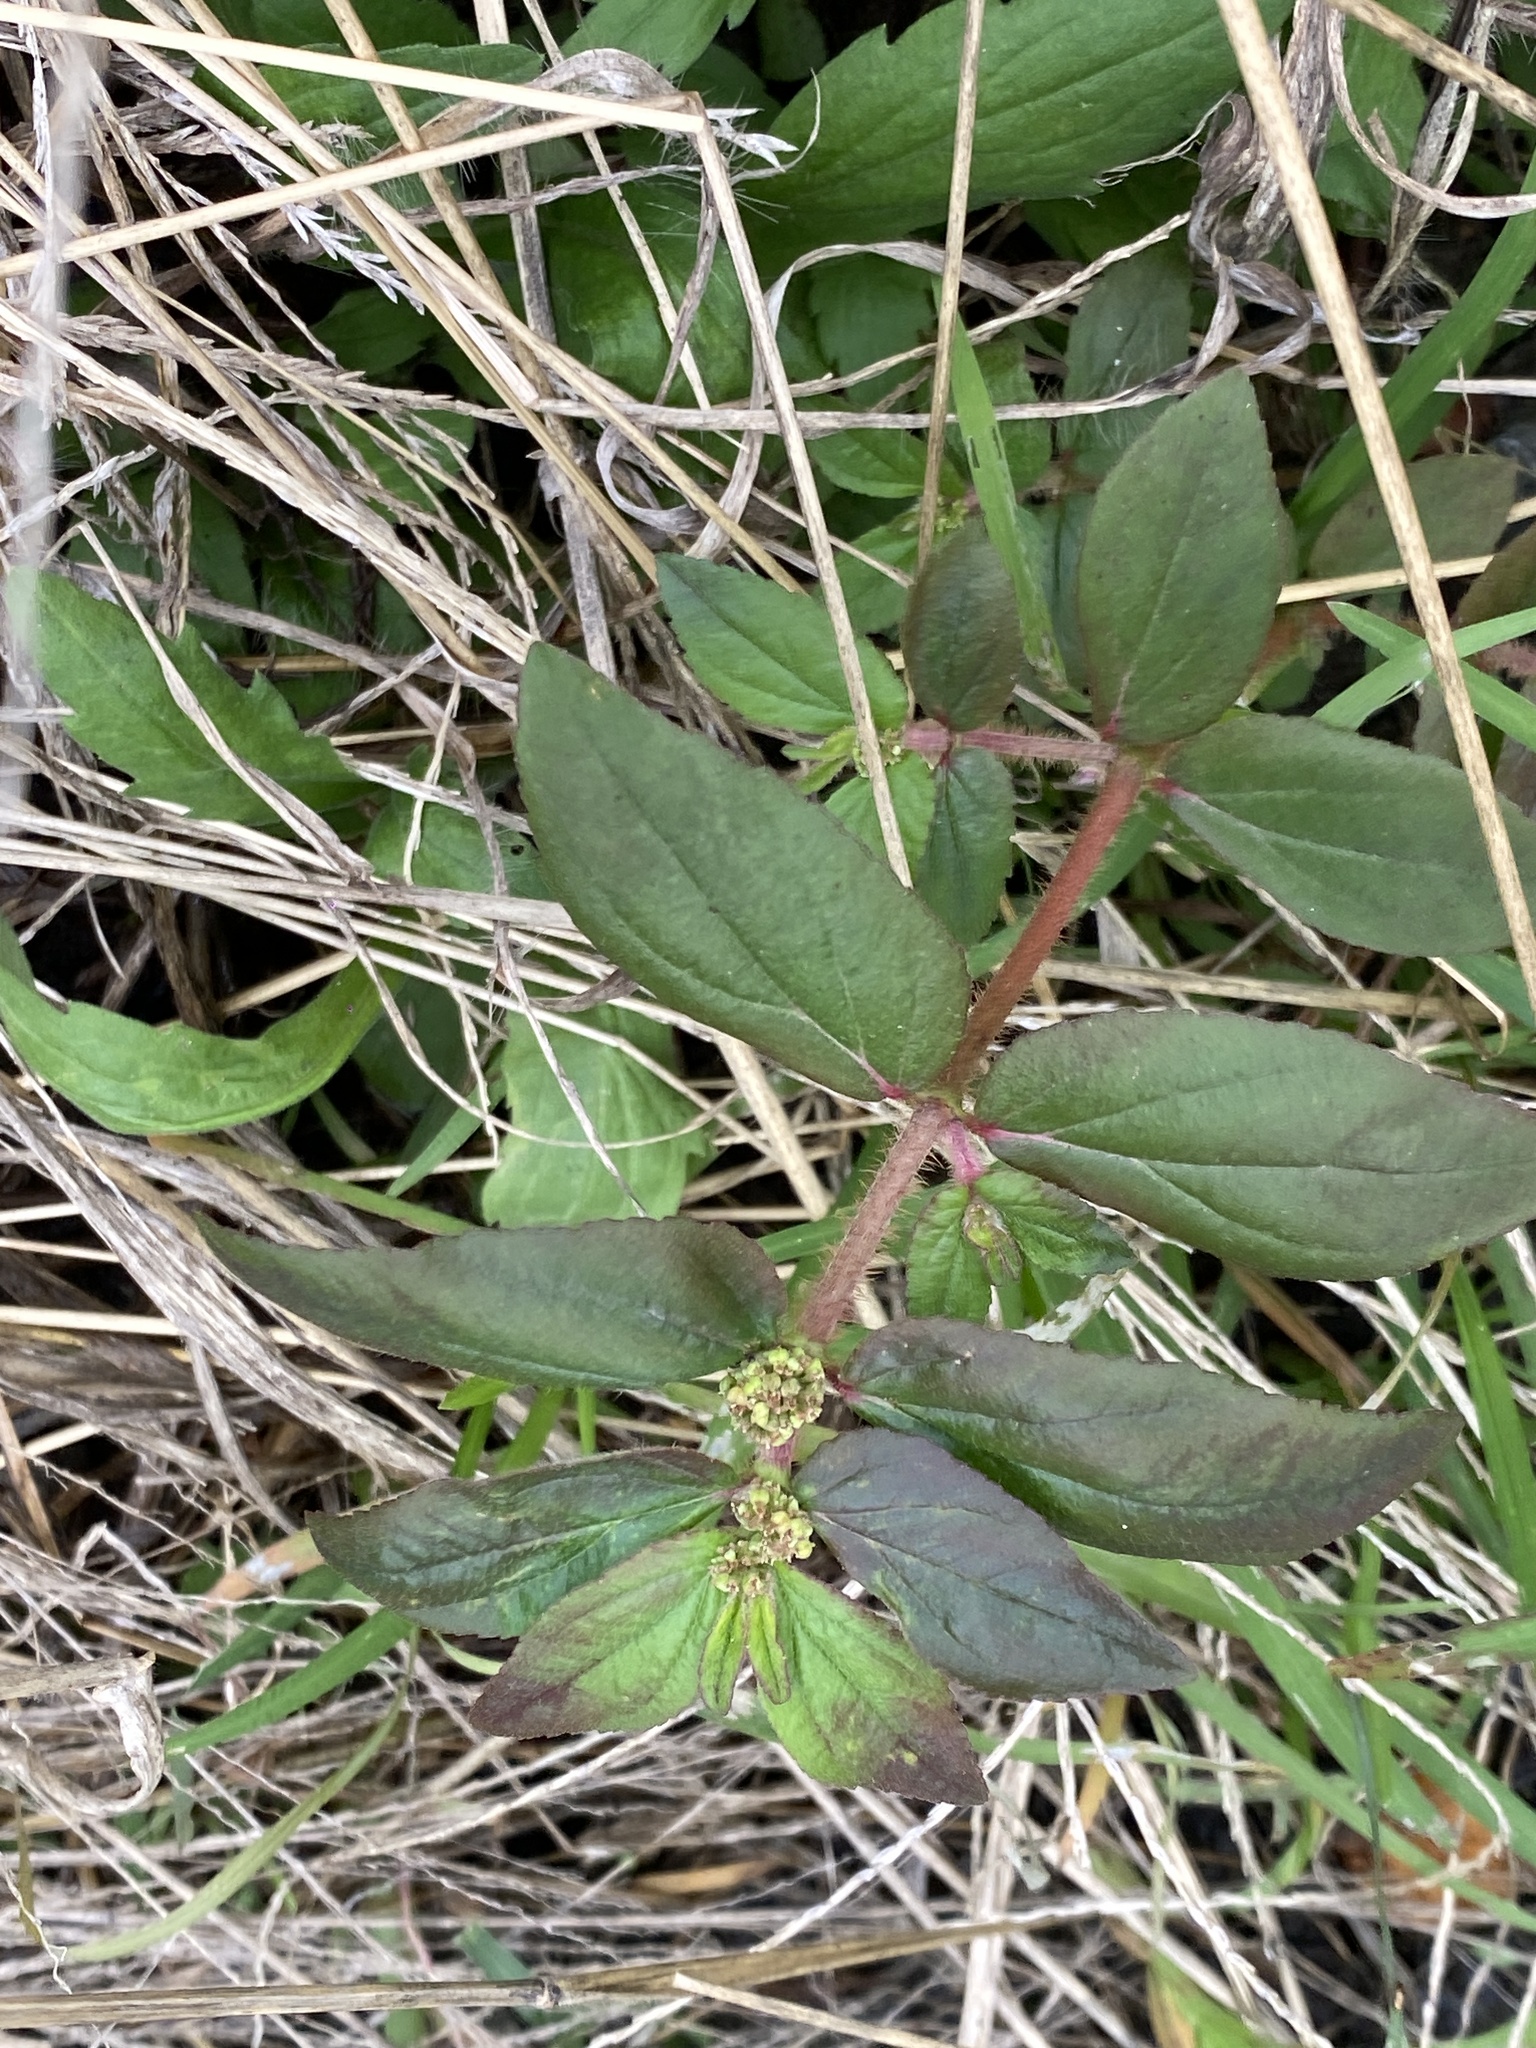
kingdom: Plantae
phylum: Tracheophyta
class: Magnoliopsida
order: Malpighiales
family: Euphorbiaceae
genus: Euphorbia
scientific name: Euphorbia hirta
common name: Pillpod sandmat
